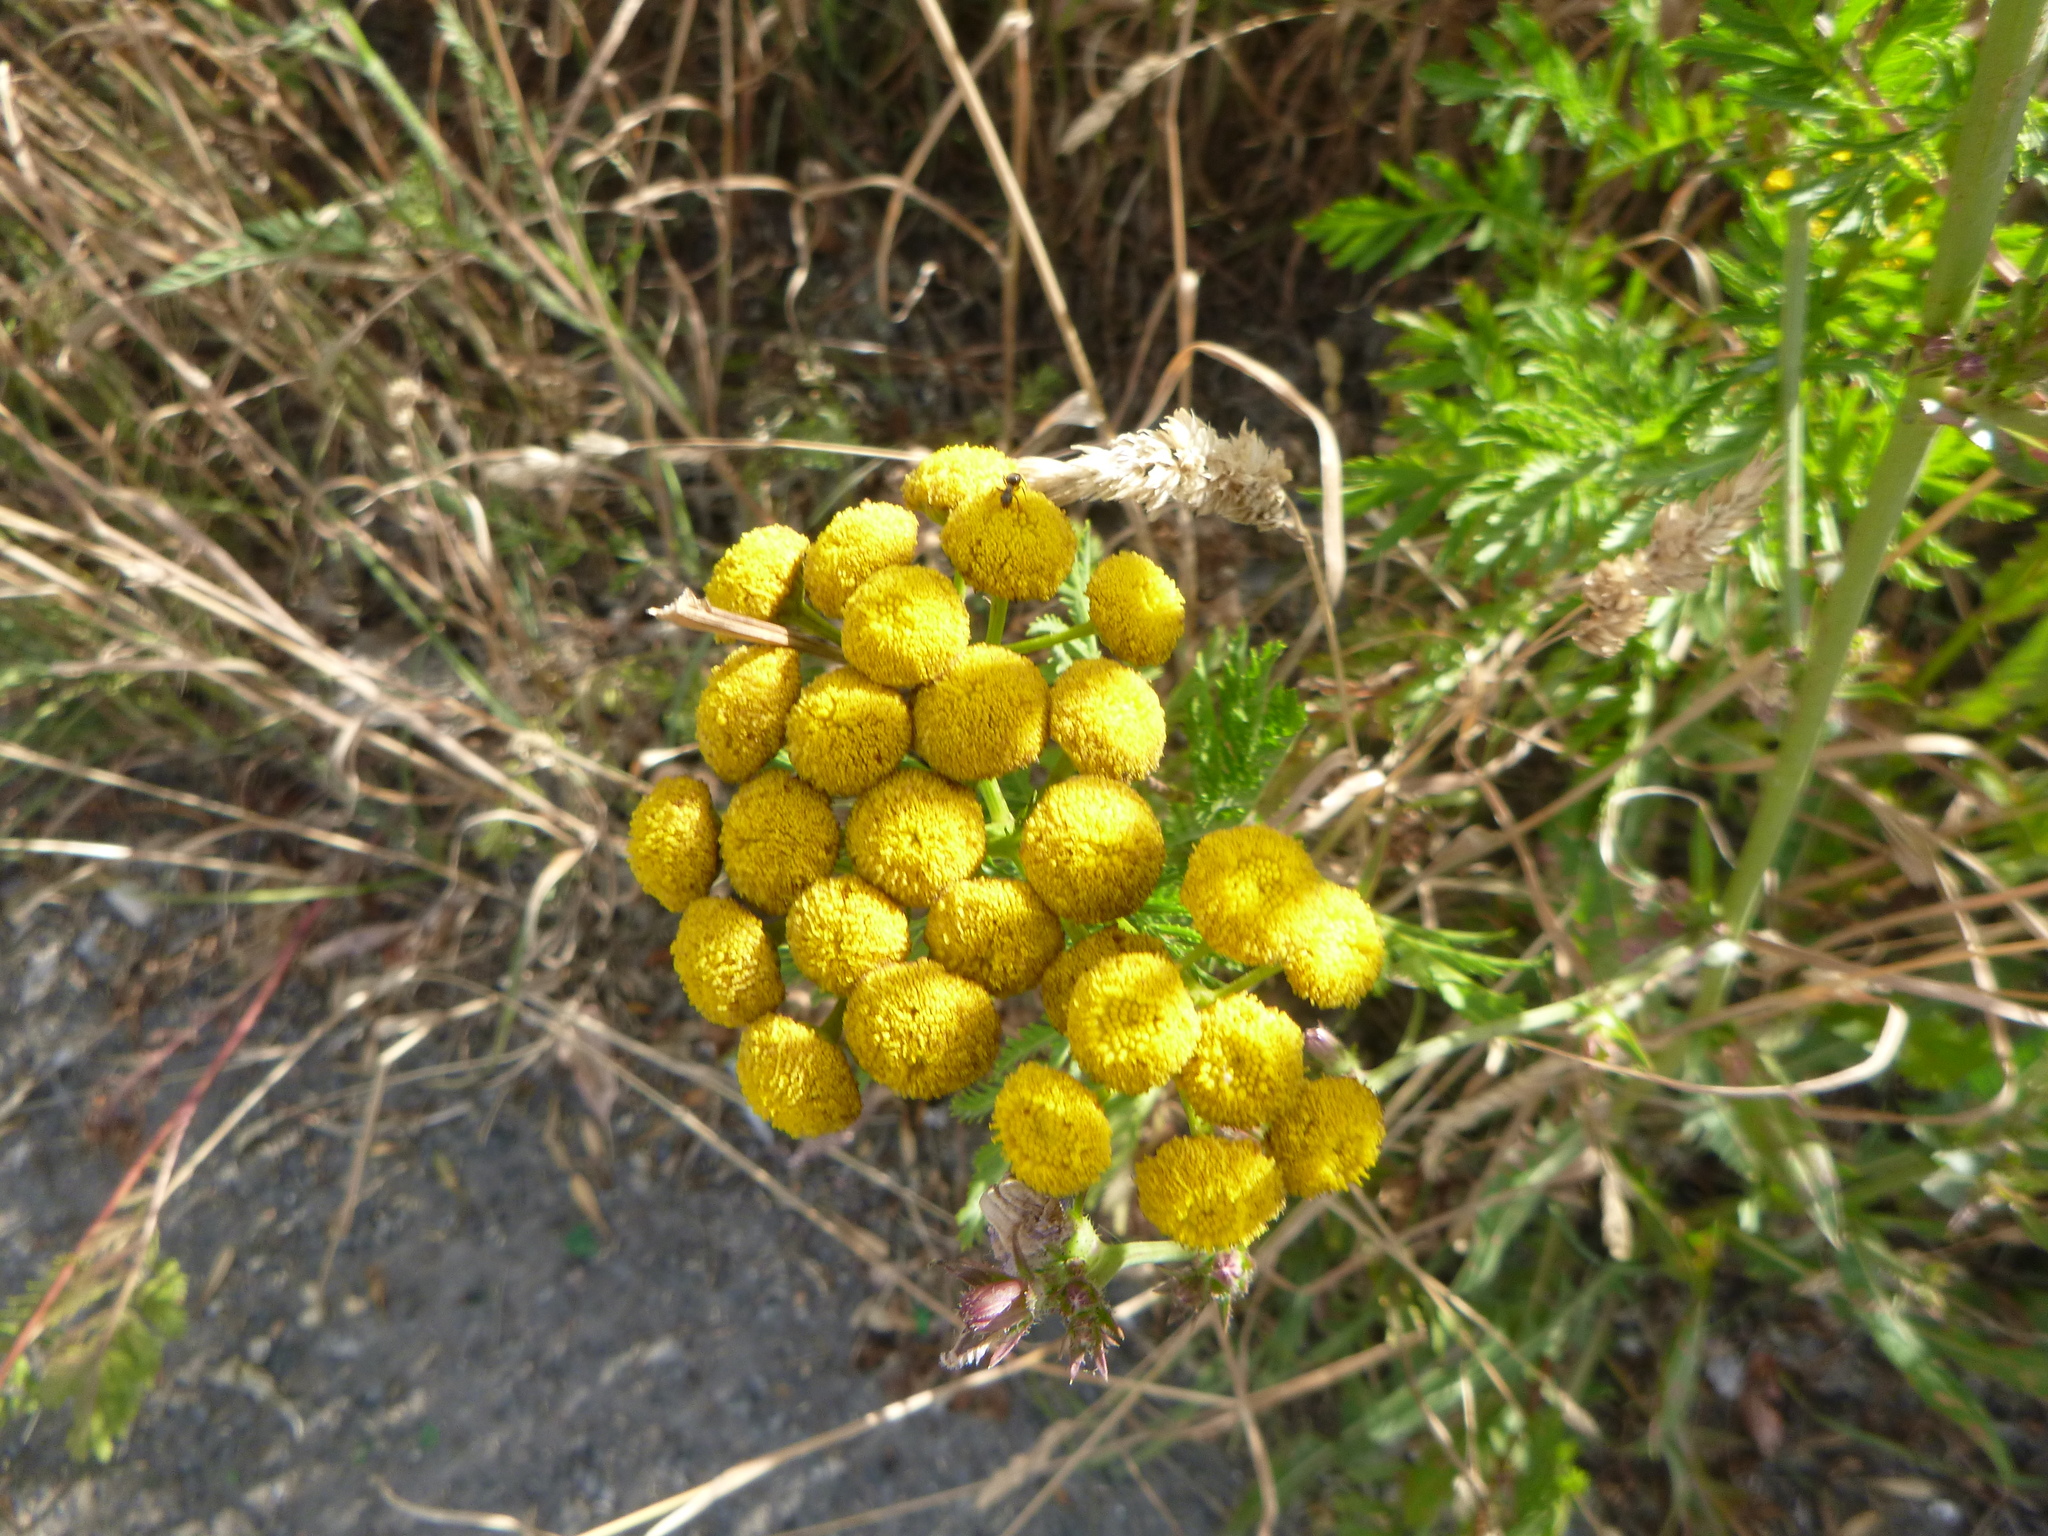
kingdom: Plantae
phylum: Tracheophyta
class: Magnoliopsida
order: Asterales
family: Asteraceae
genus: Tanacetum
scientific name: Tanacetum vulgare
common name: Common tansy
